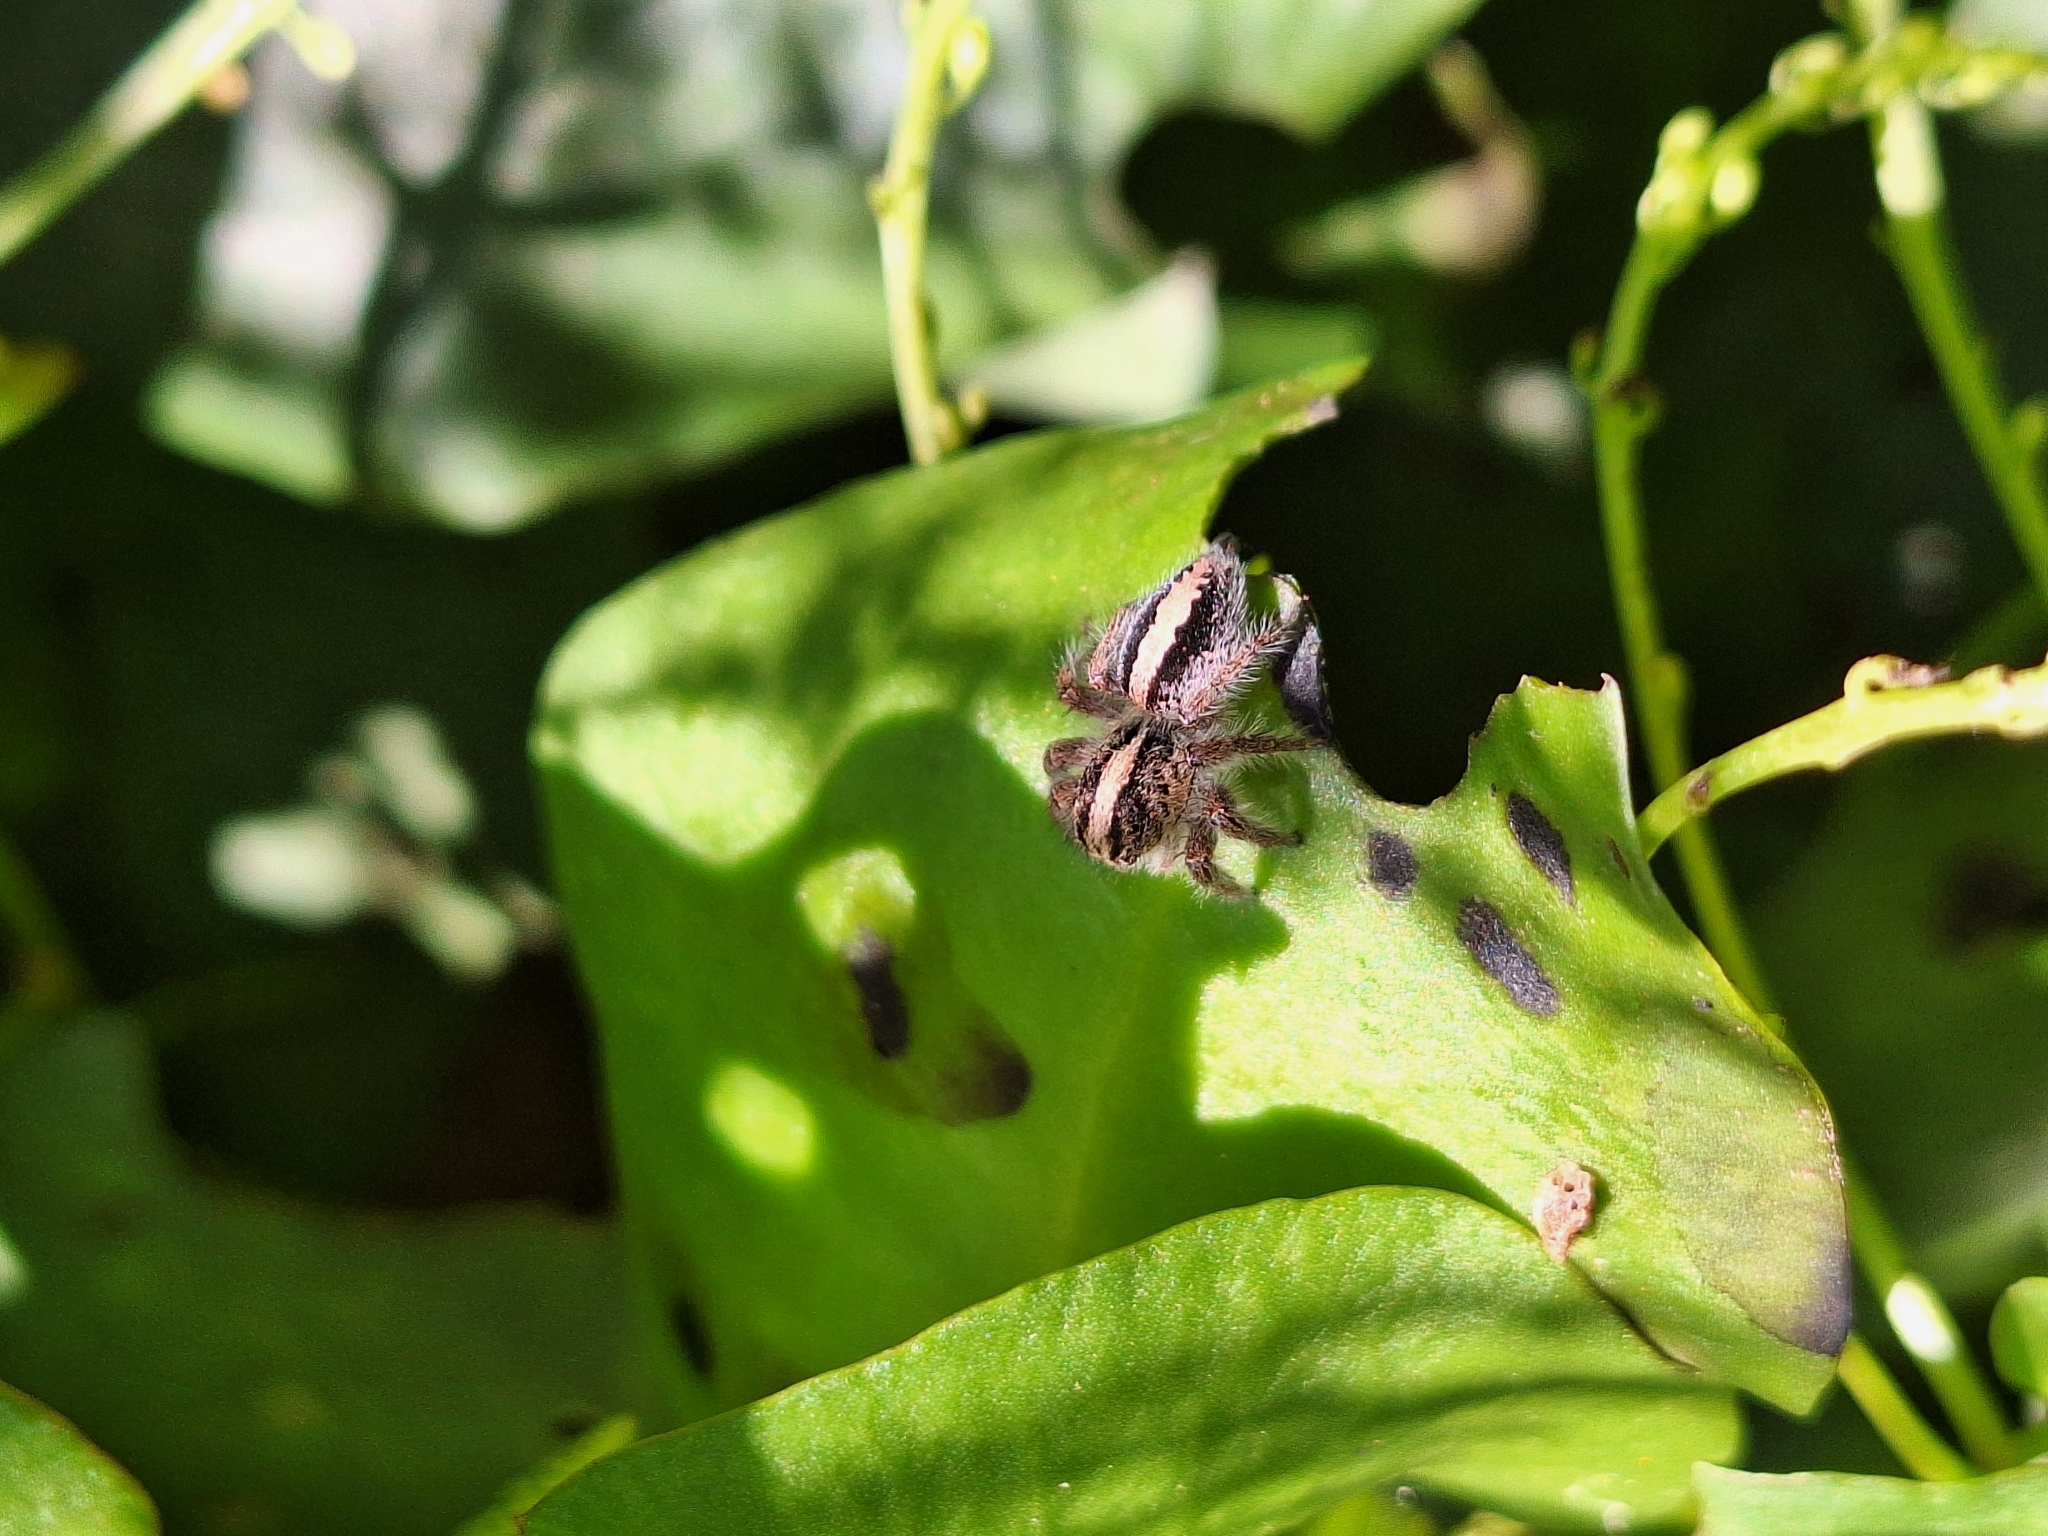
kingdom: Animalia
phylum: Arthropoda
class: Arachnida
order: Araneae
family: Salticidae
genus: Megafreya
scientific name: Megafreya sutrix
